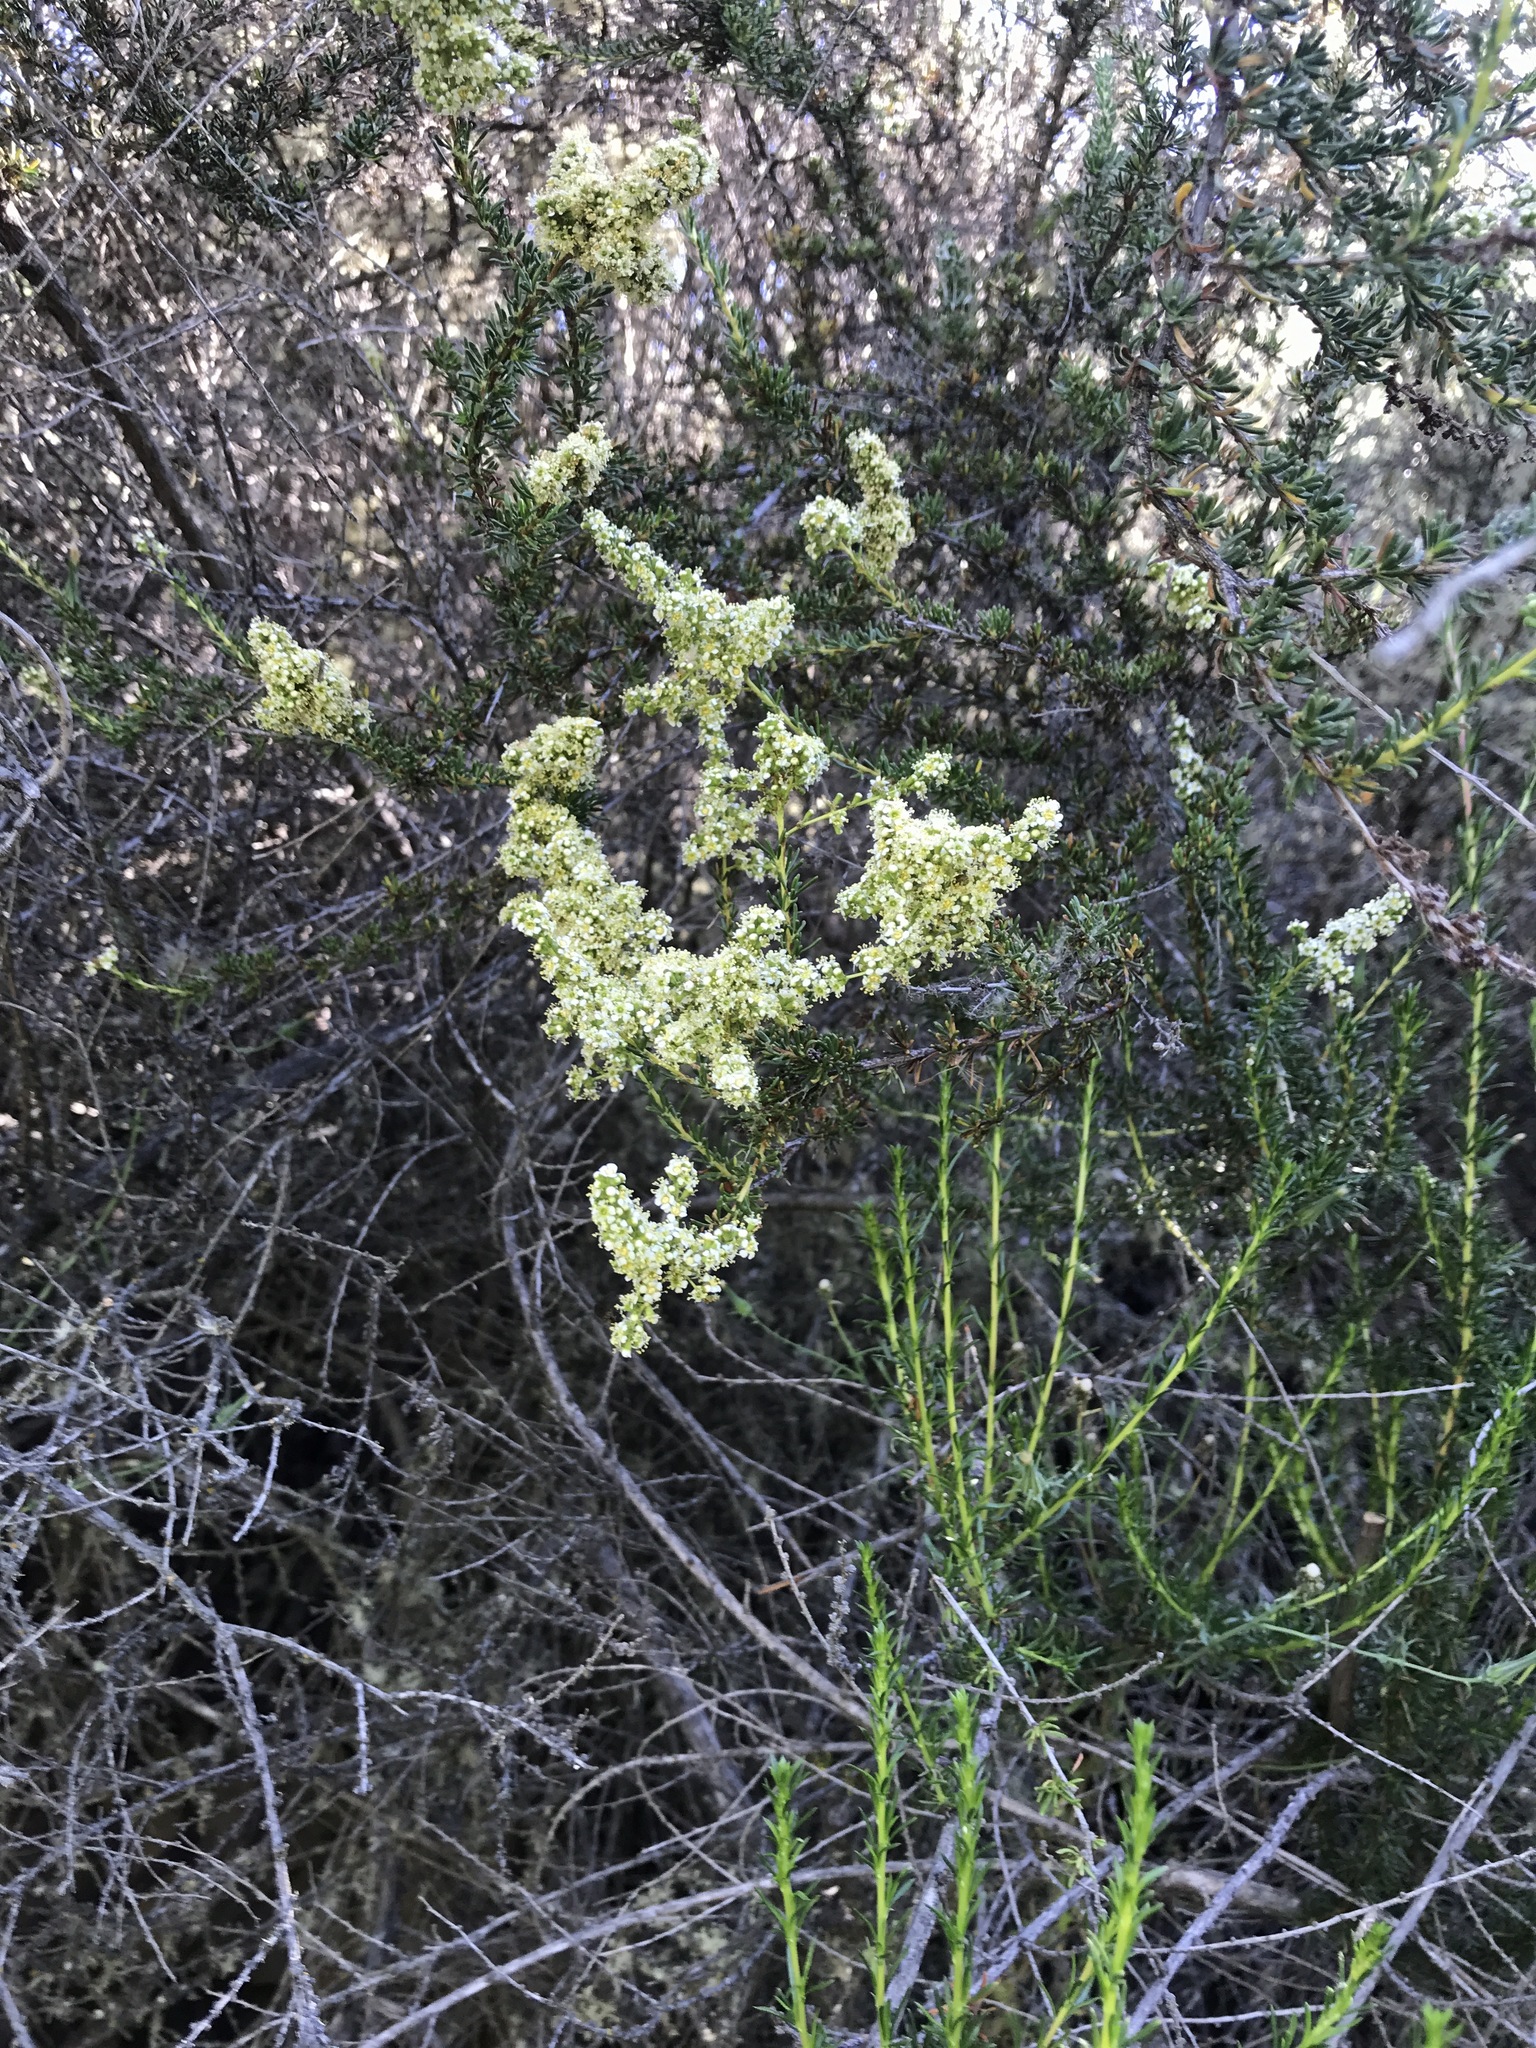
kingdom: Plantae
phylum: Tracheophyta
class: Magnoliopsida
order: Rosales
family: Rosaceae
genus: Adenostoma
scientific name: Adenostoma fasciculatum
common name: Chamise
